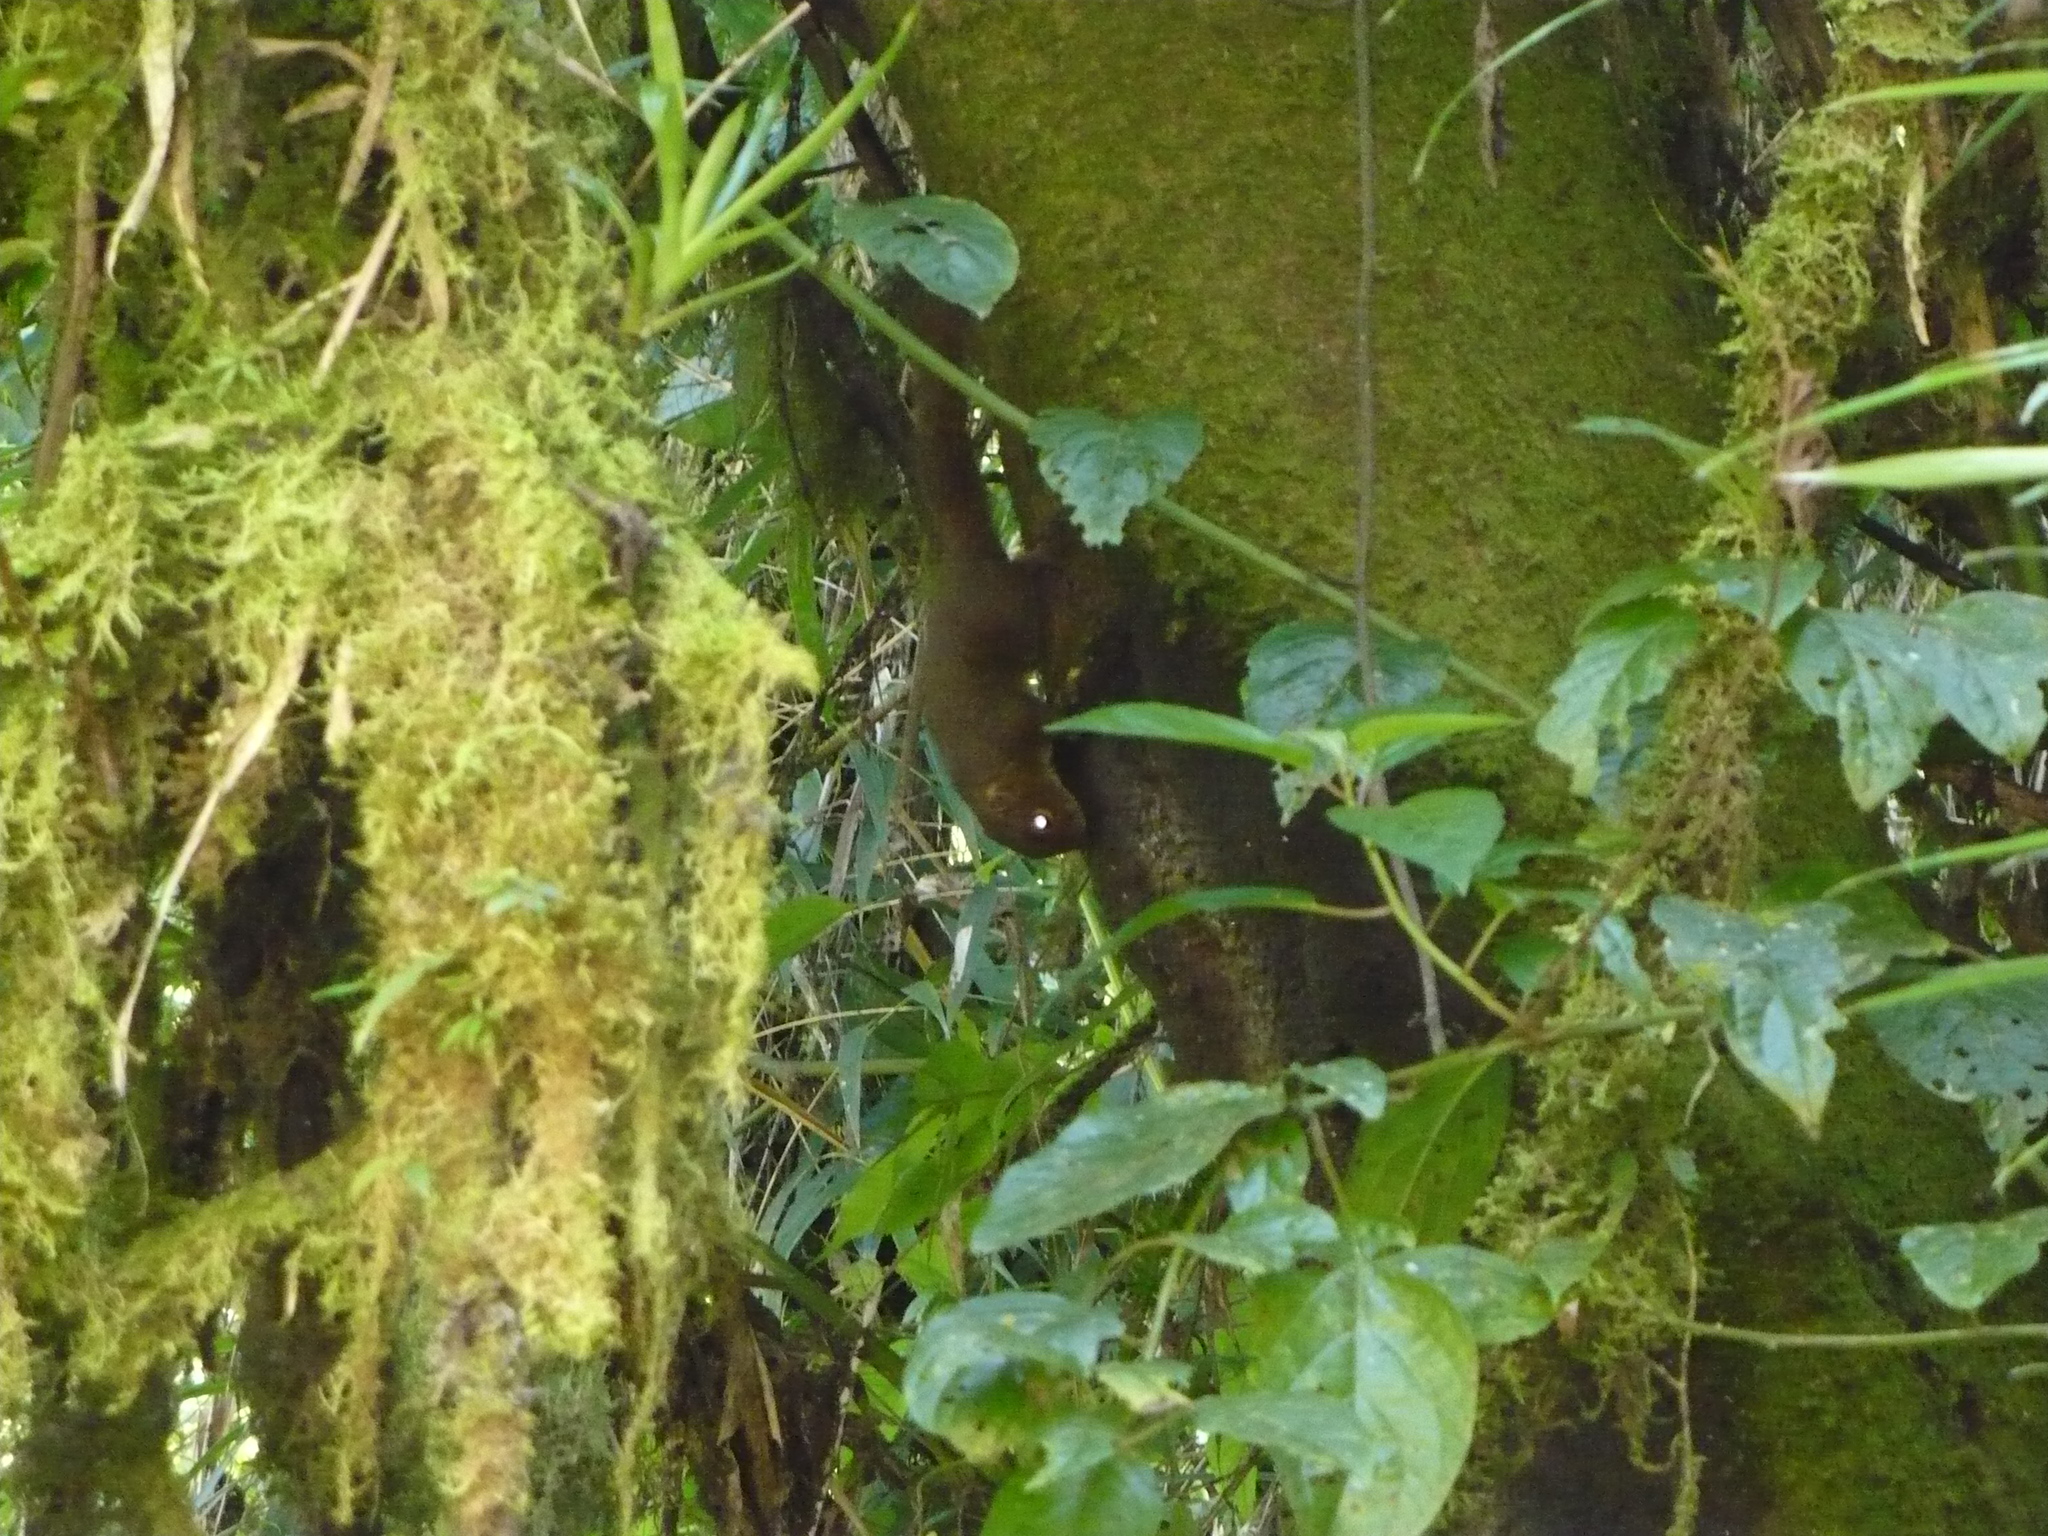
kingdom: Animalia
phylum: Chordata
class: Mammalia
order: Rodentia
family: Sciuridae
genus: Microsciurus
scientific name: Microsciurus alfari
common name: Central american dwarf squirrel
